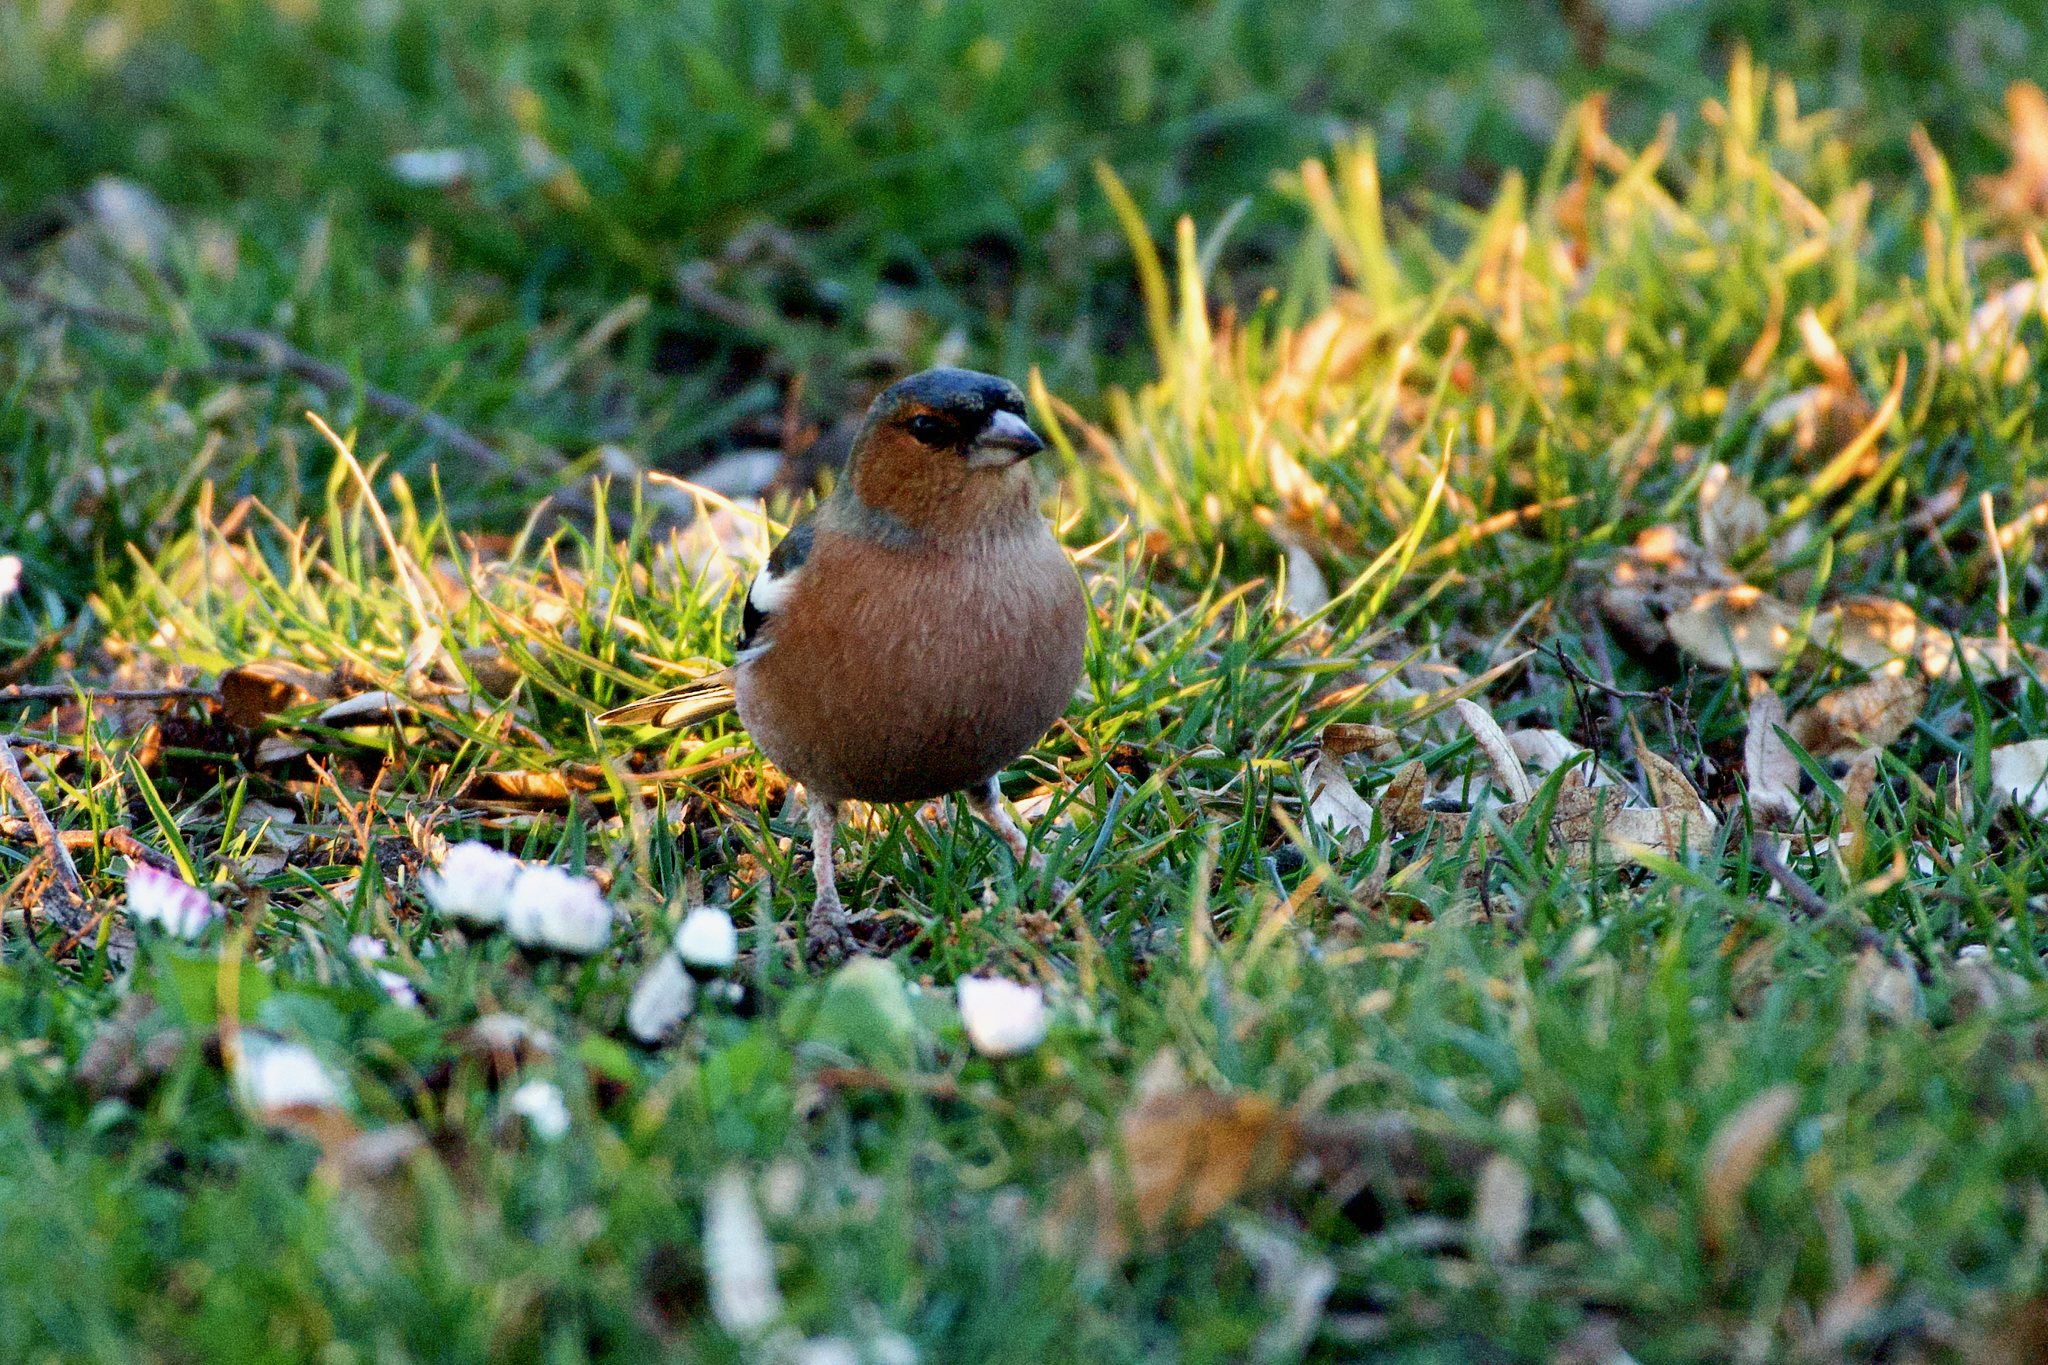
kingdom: Animalia
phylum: Chordata
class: Aves
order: Passeriformes
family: Fringillidae
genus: Fringilla
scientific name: Fringilla coelebs
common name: Common chaffinch
